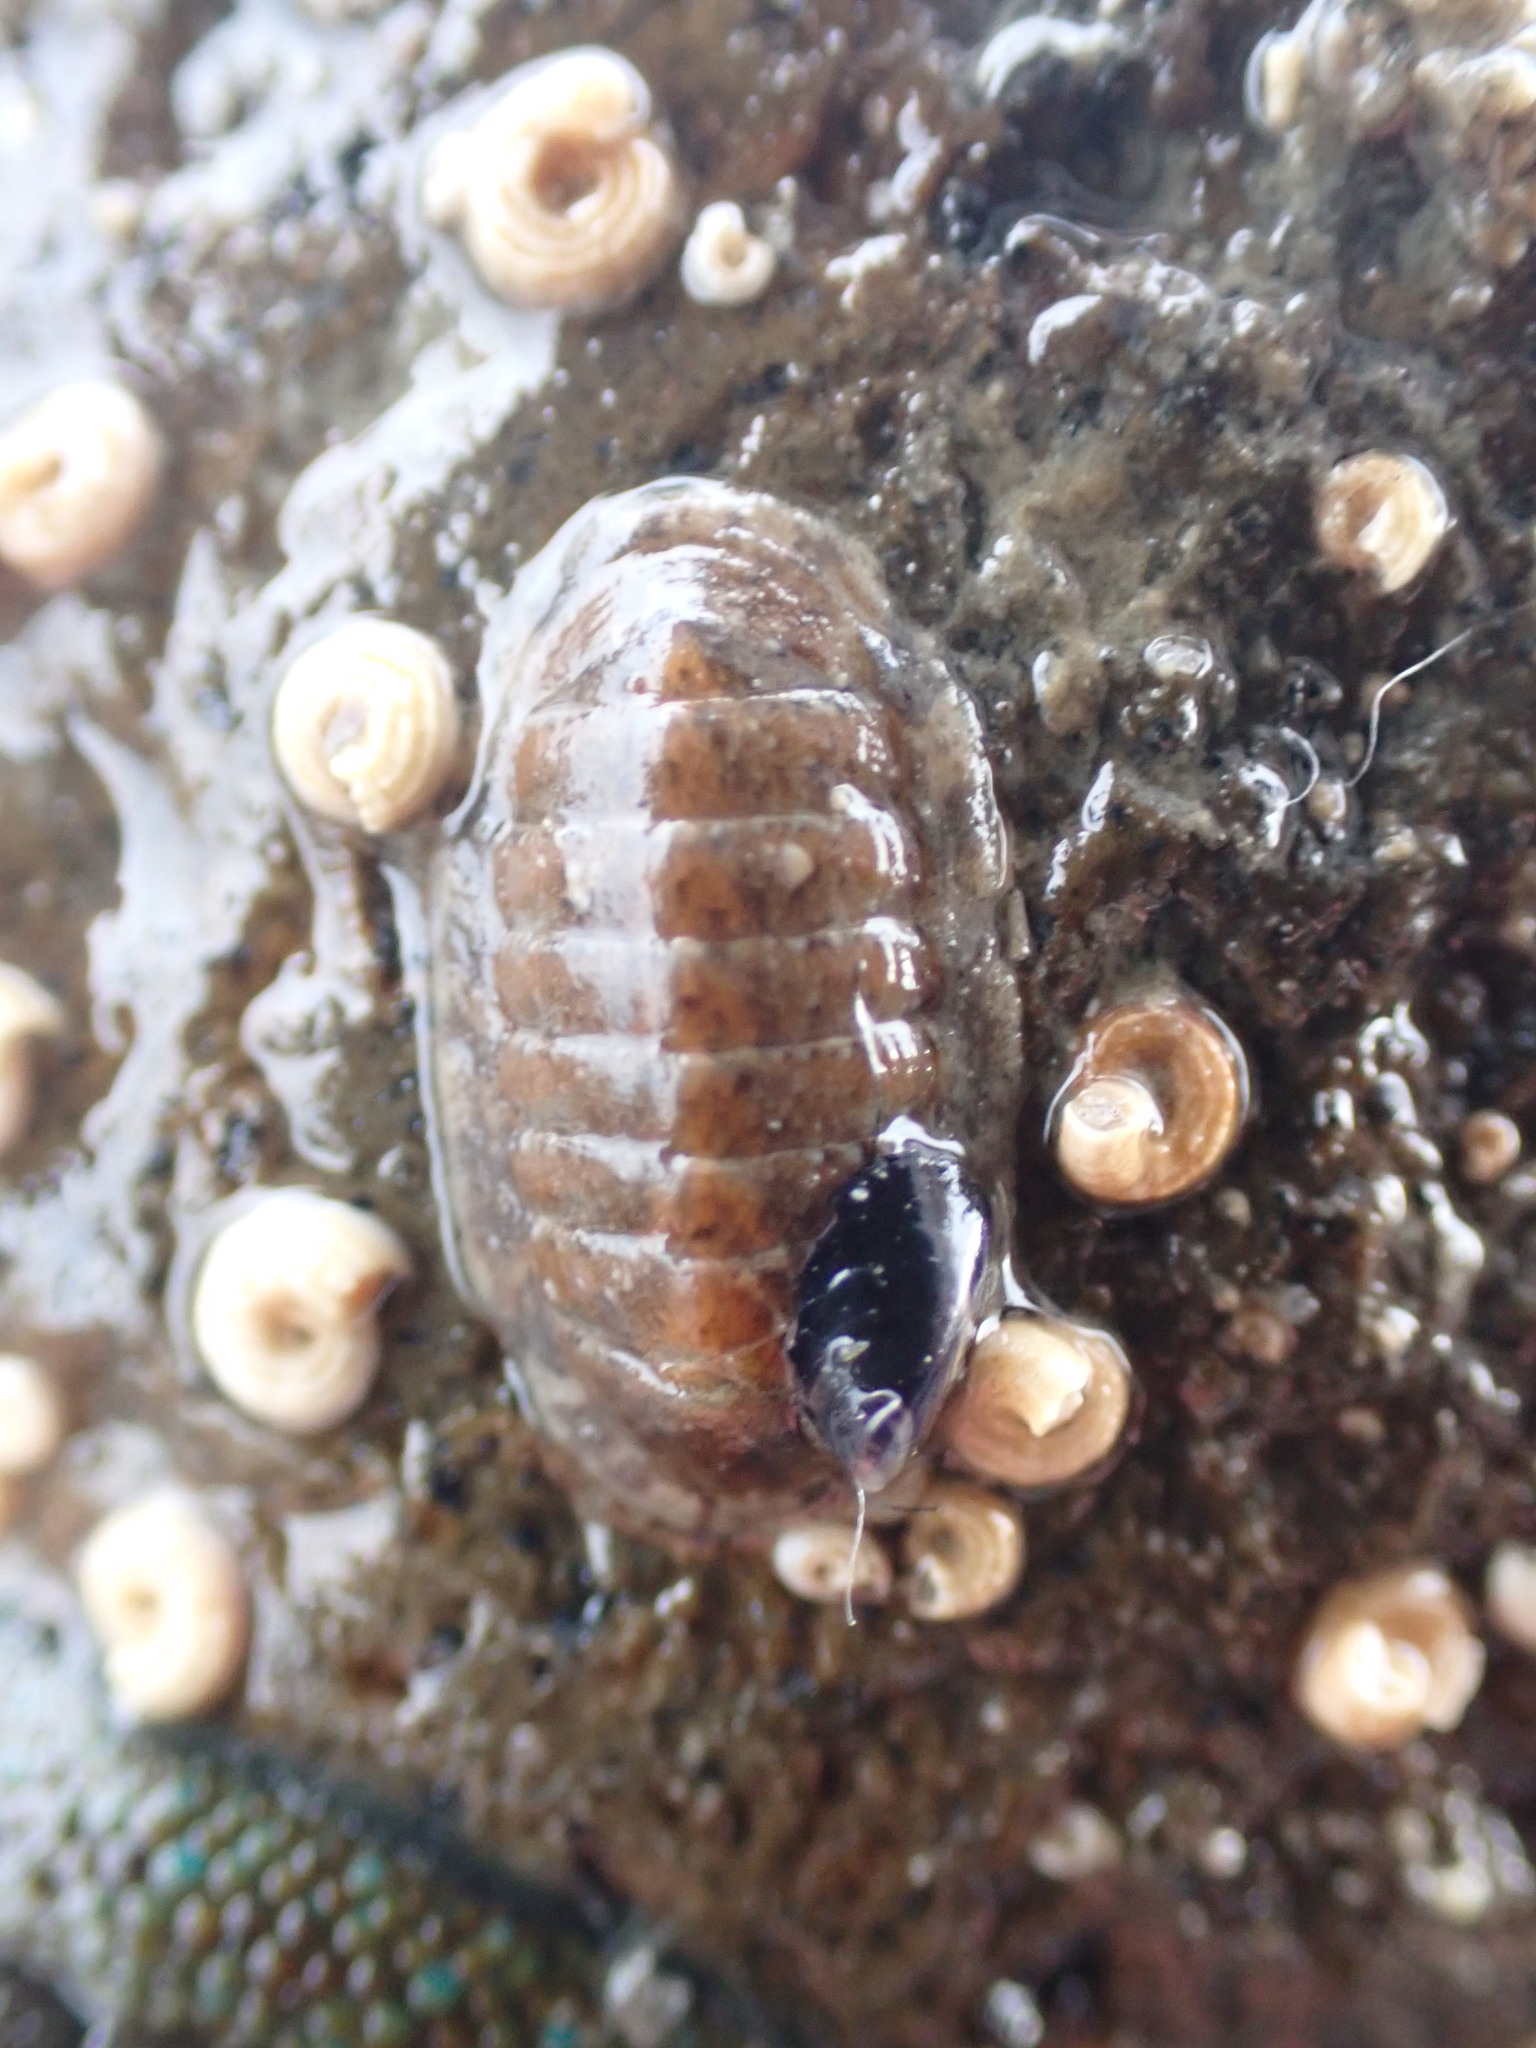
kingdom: Animalia
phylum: Mollusca
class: Polyplacophora
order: Chitonida
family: Ischnochitonidae
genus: Ischnochiton
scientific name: Ischnochiton maorianus
